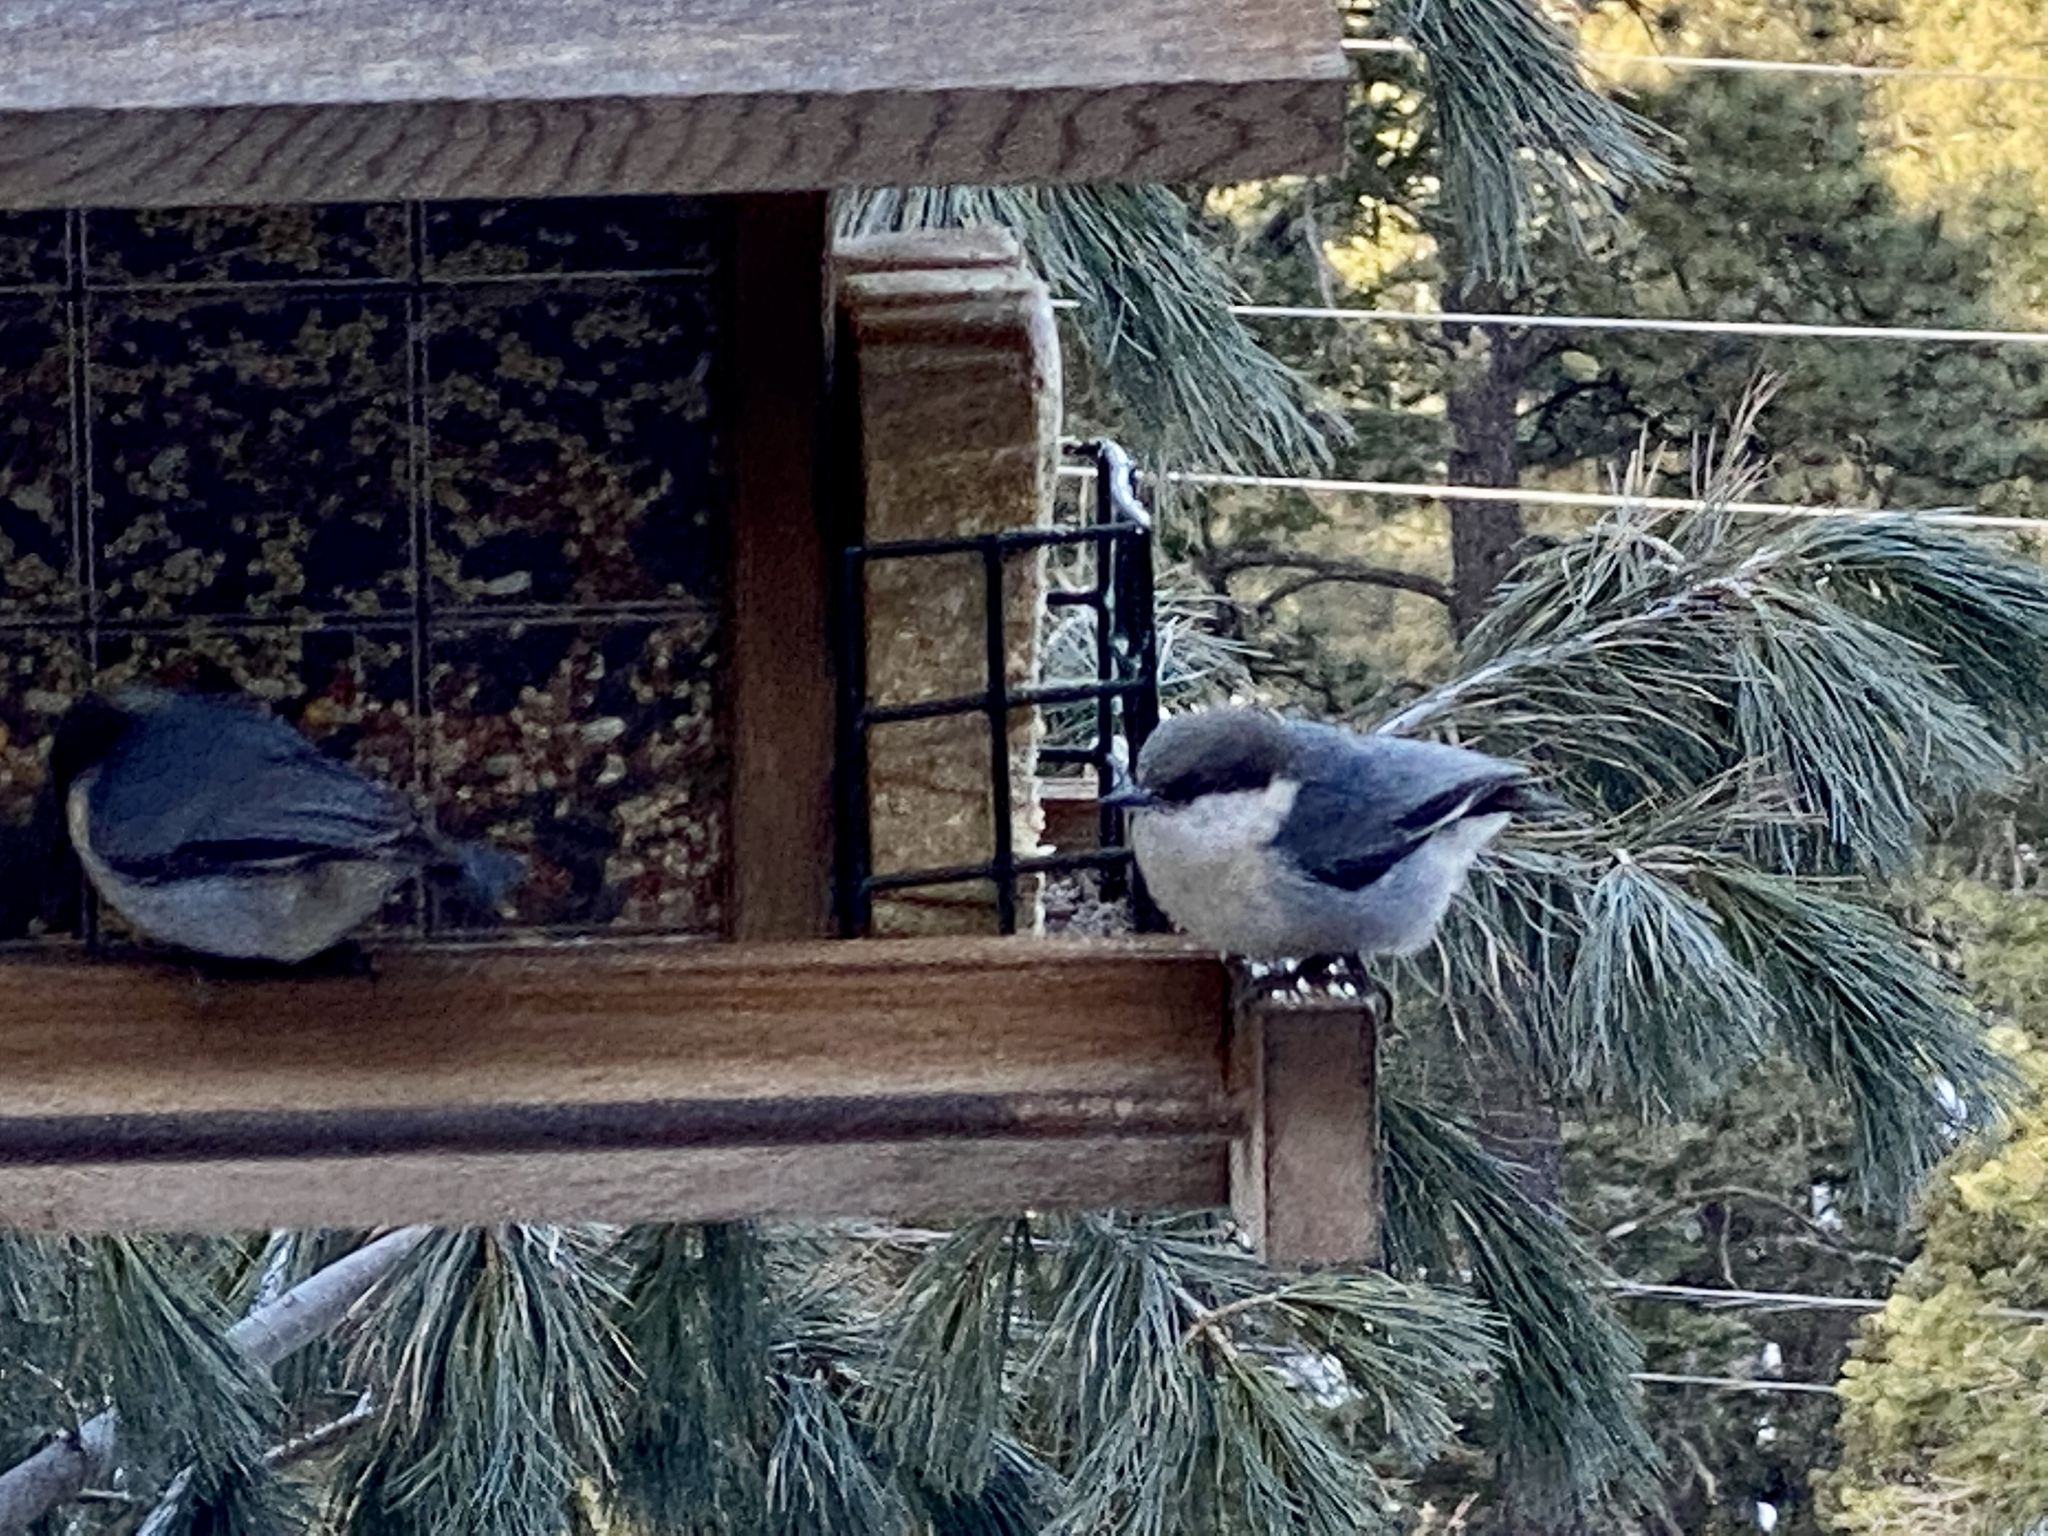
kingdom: Animalia
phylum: Chordata
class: Aves
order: Passeriformes
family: Sittidae
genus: Sitta
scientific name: Sitta pygmaea
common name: Pygmy nuthatch
